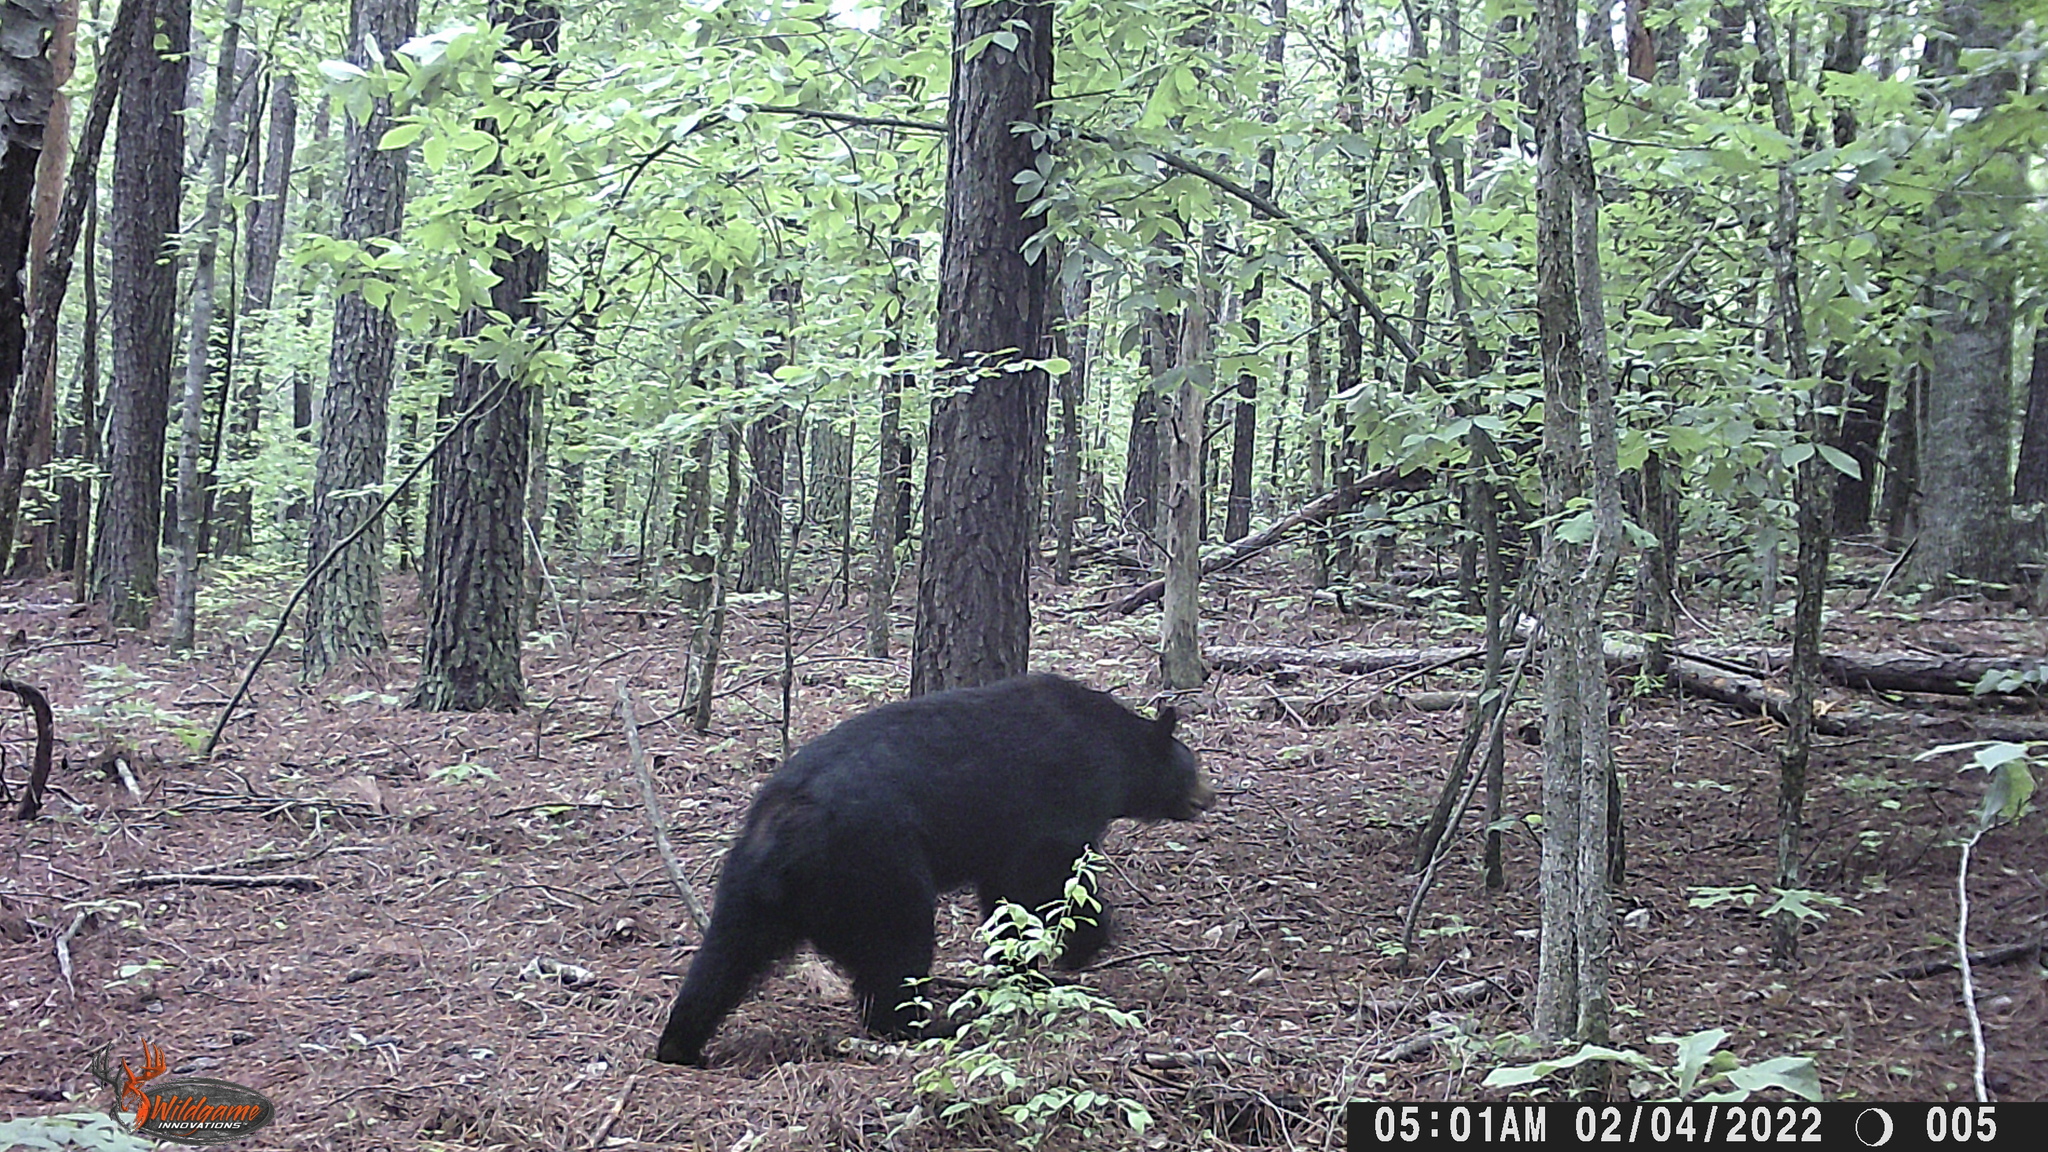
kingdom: Animalia
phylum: Chordata
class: Mammalia
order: Carnivora
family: Ursidae
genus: Ursus
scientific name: Ursus americanus
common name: American black bear
